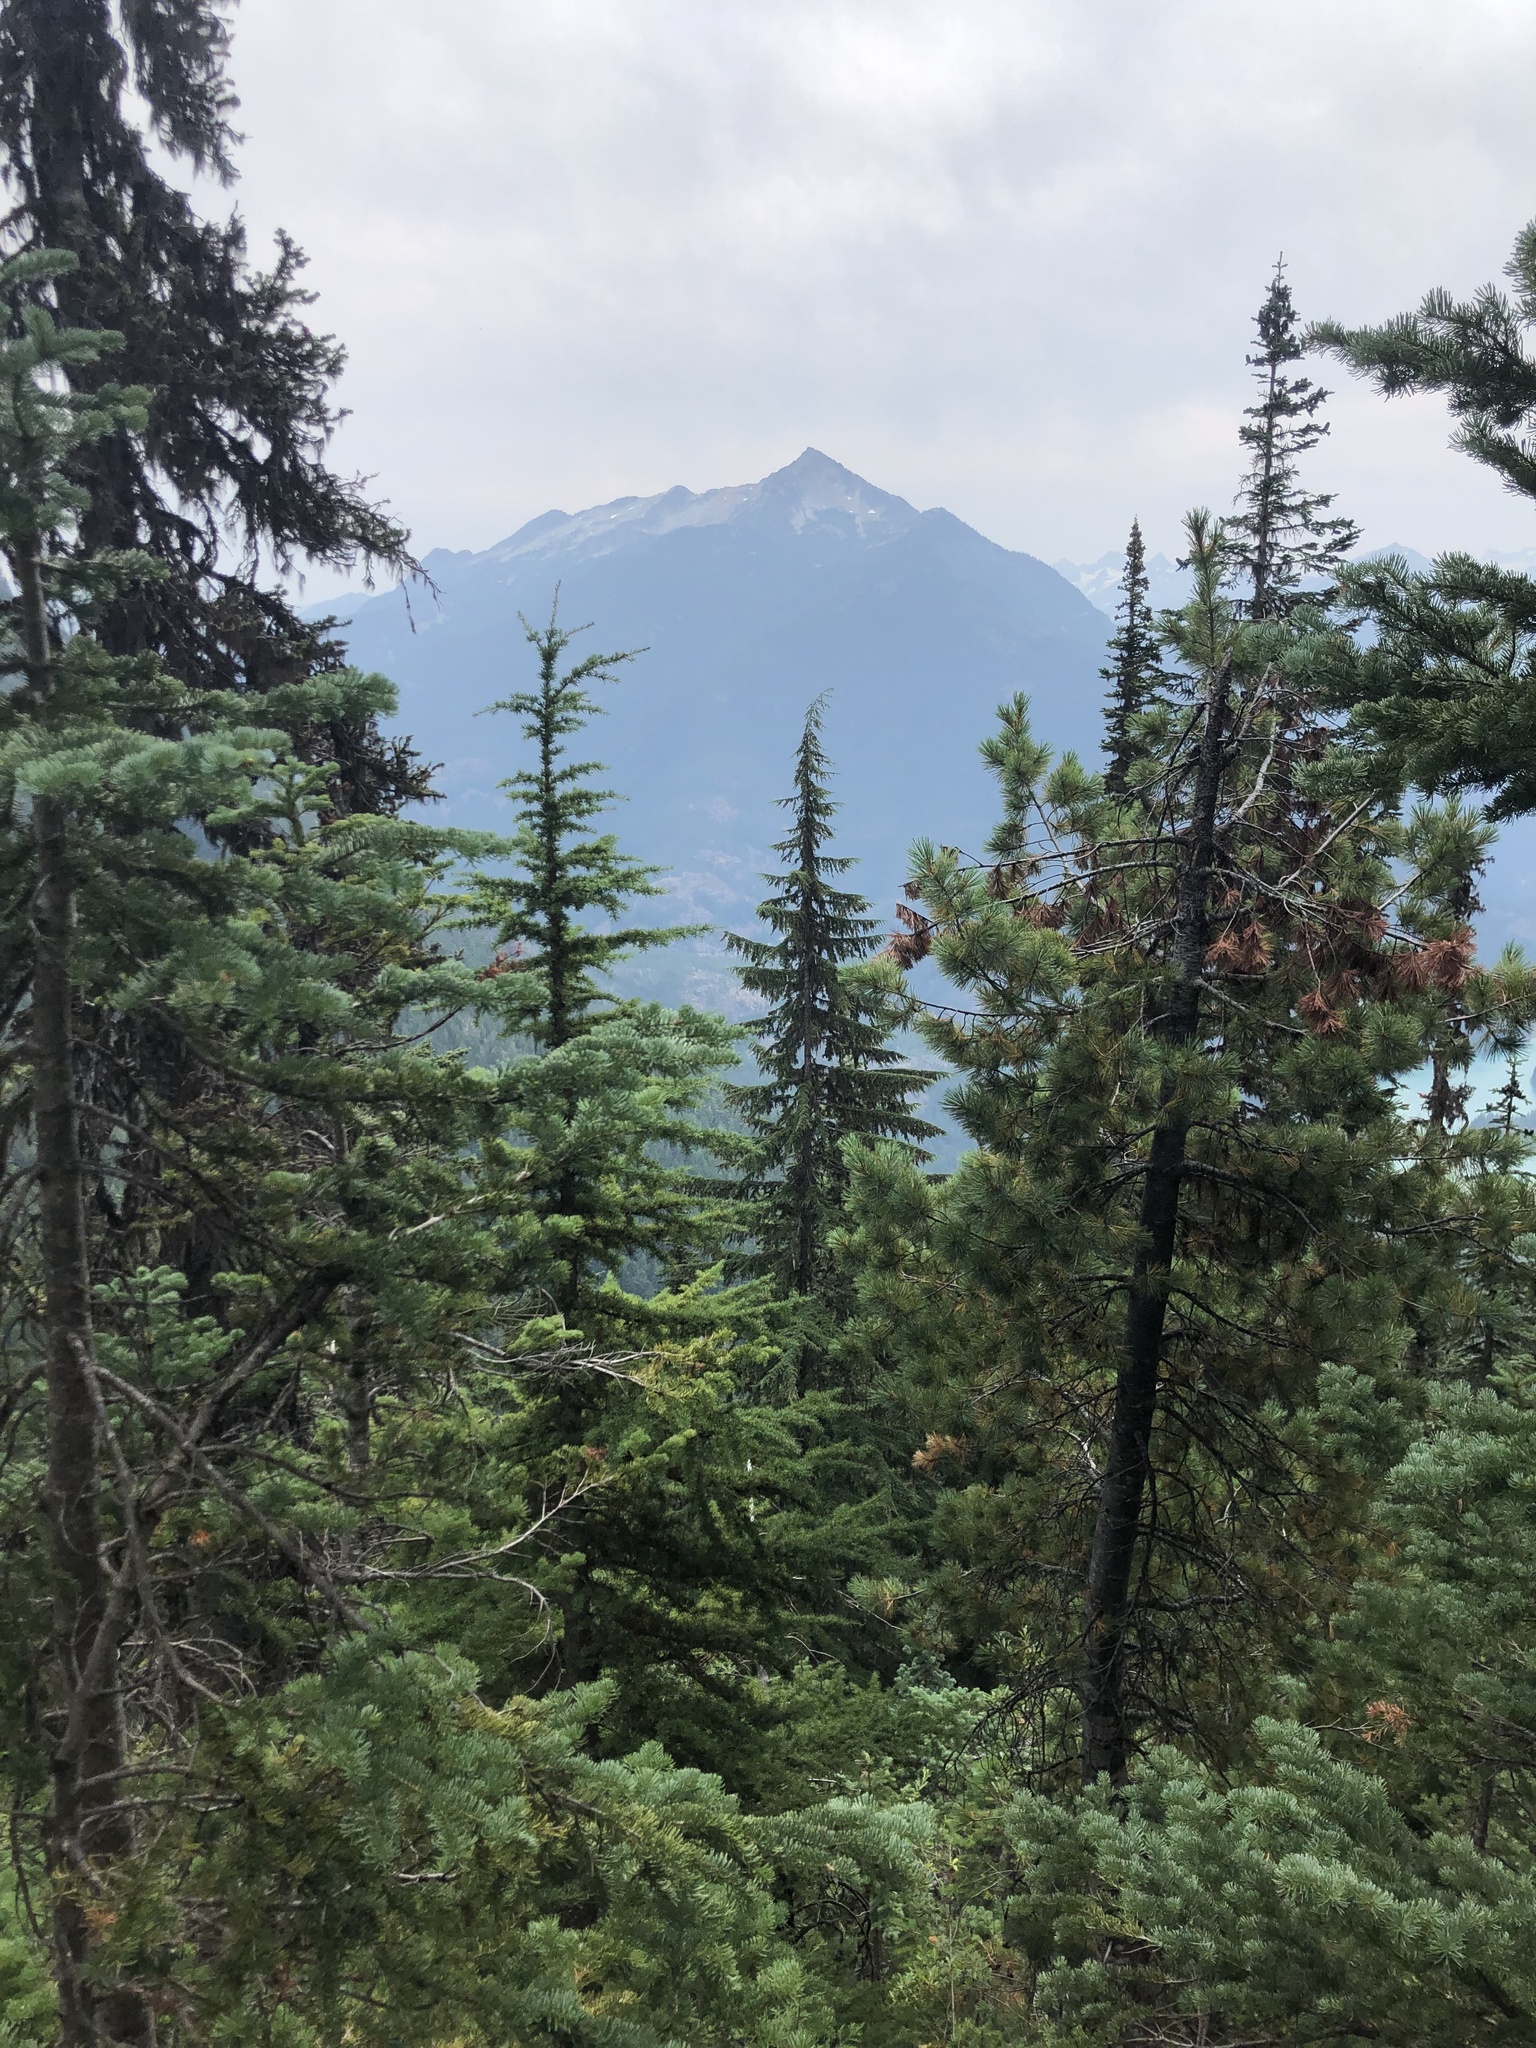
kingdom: Plantae
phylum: Tracheophyta
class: Pinopsida
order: Pinales
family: Pinaceae
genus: Pinus
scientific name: Pinus monticola
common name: Western white pine
